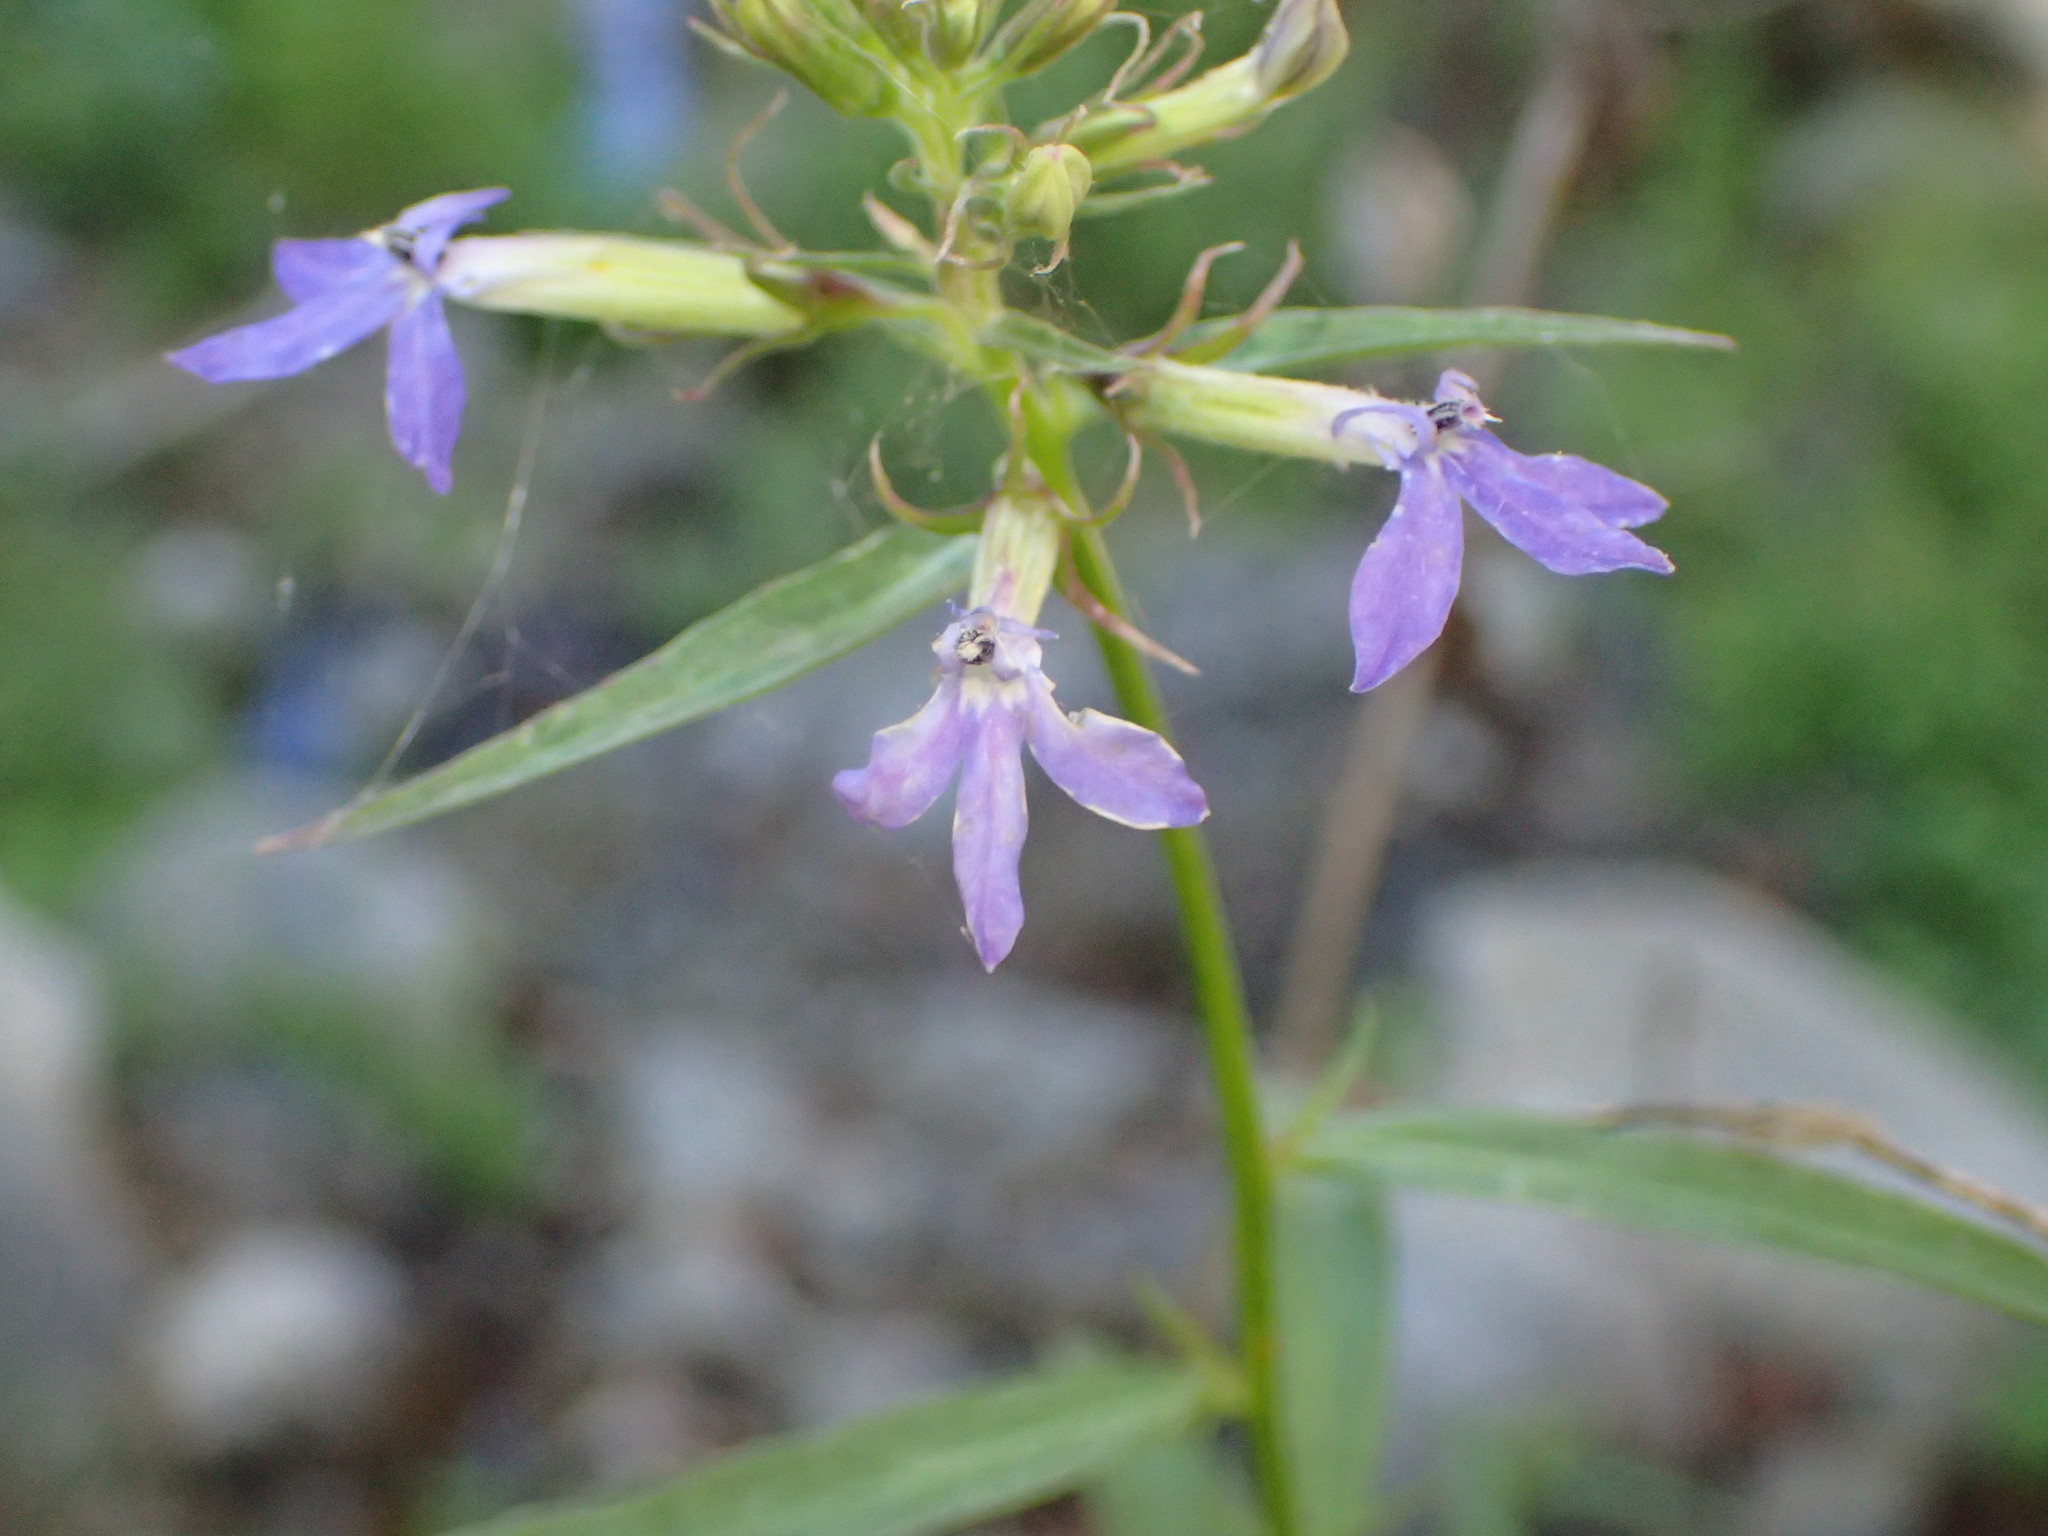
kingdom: Plantae
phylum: Tracheophyta
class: Magnoliopsida
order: Asterales
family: Campanulaceae
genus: Palmerella
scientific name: Palmerella debilis
